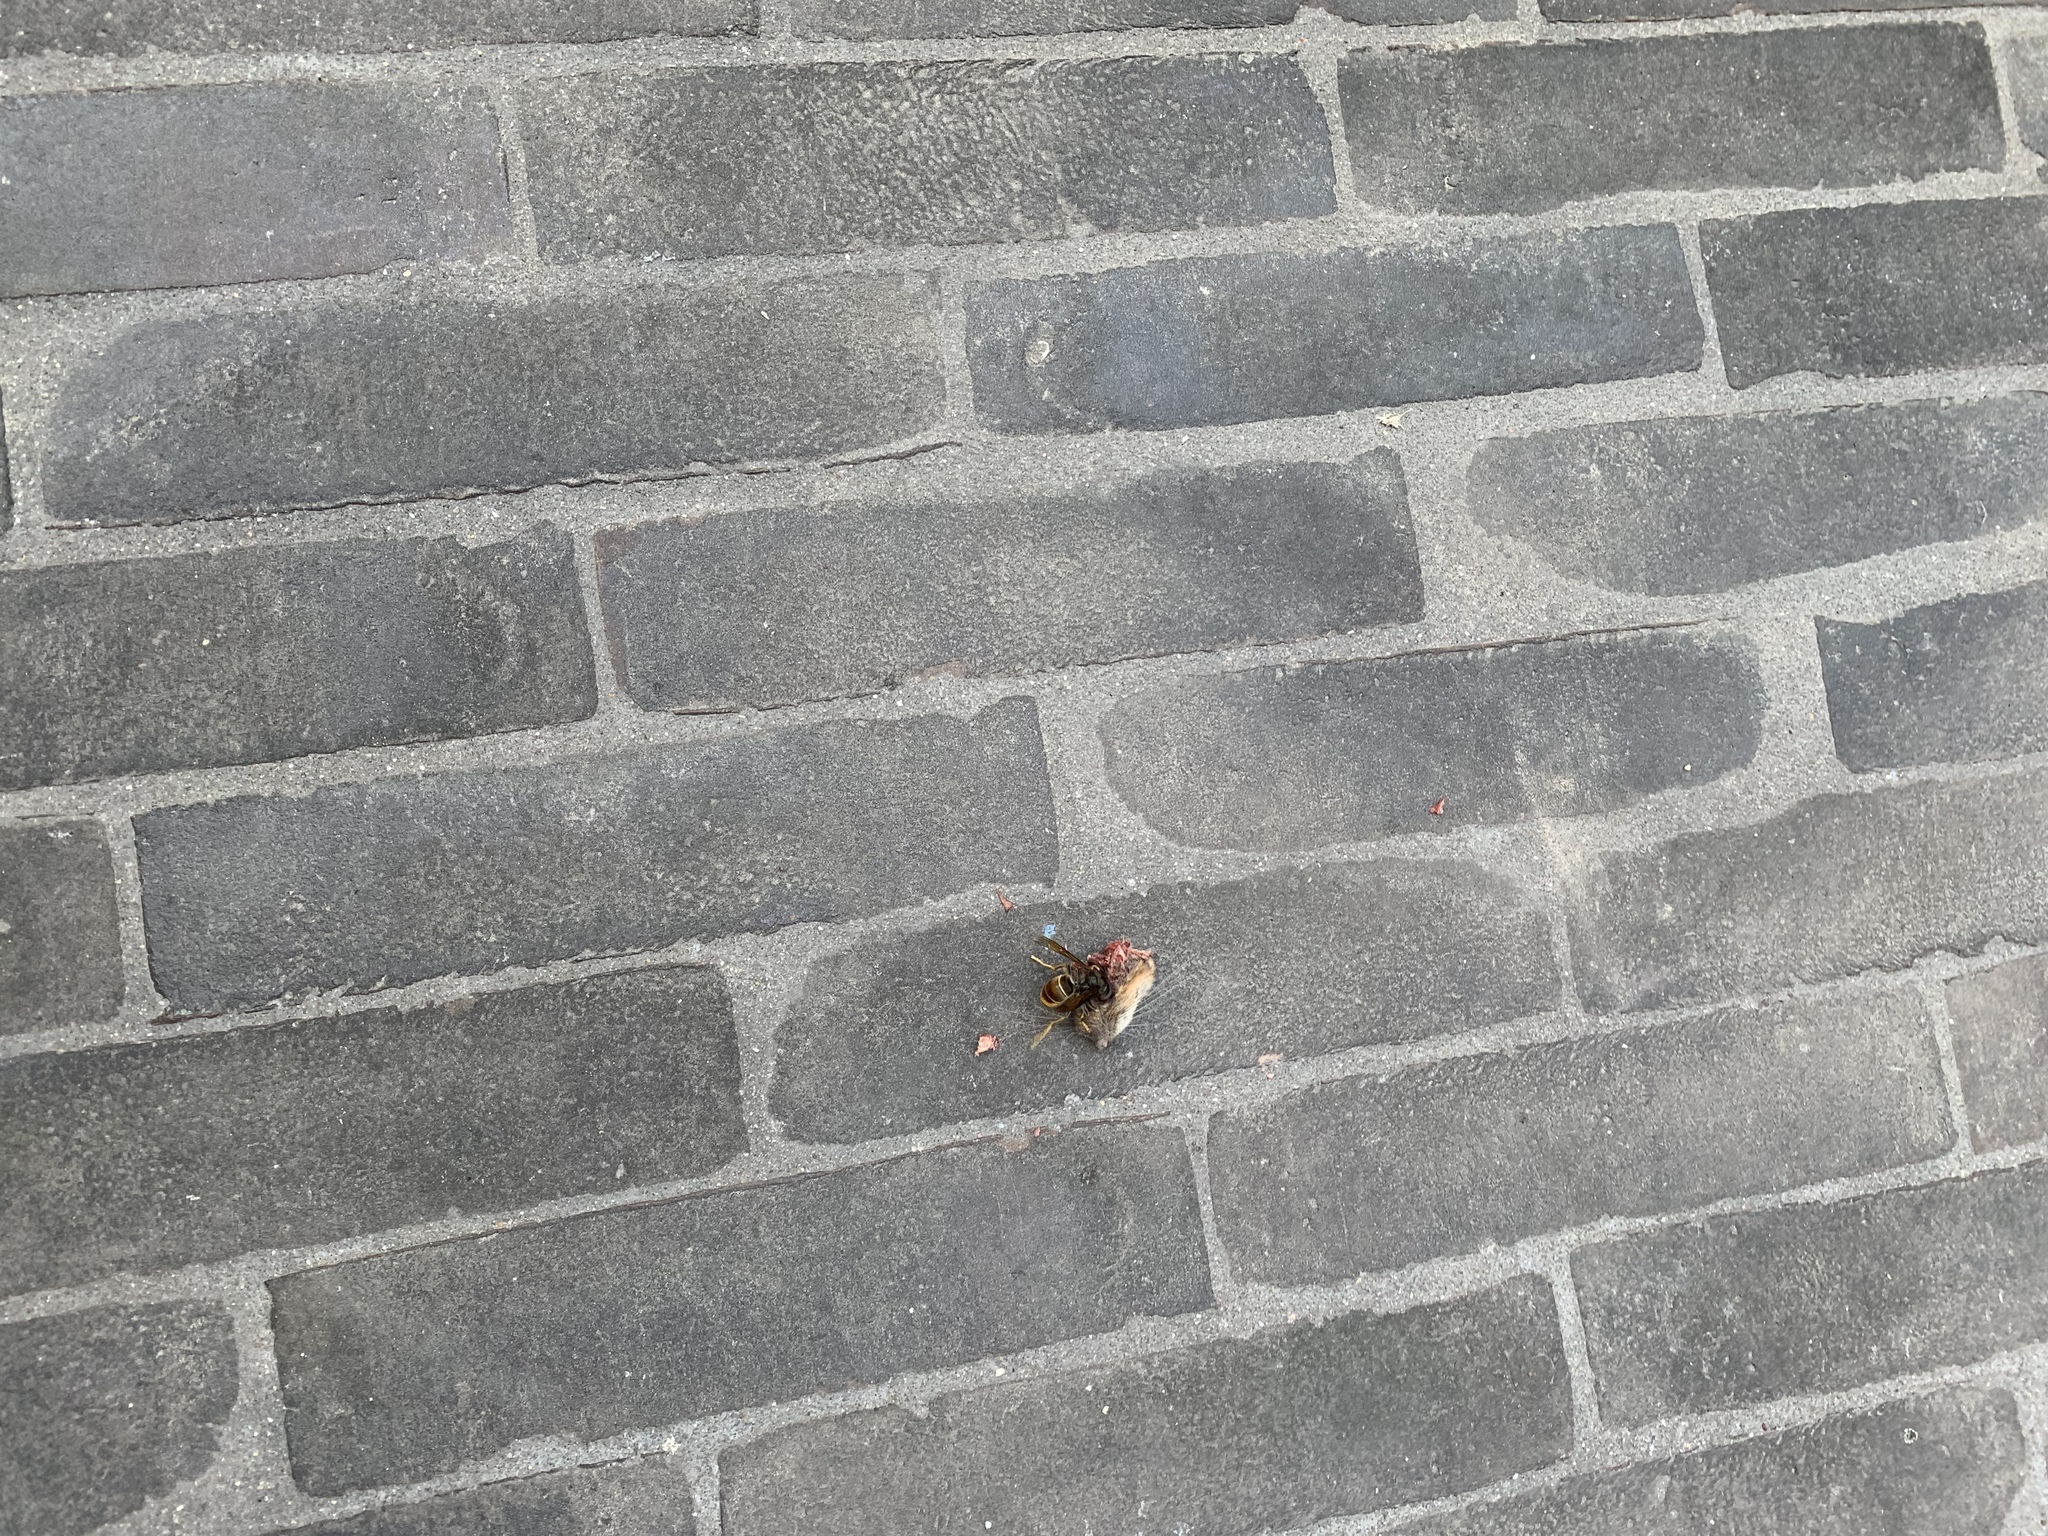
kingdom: Animalia
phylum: Arthropoda
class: Insecta
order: Hymenoptera
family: Vespidae
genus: Vespa
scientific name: Vespa velutina
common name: Asian hornet
